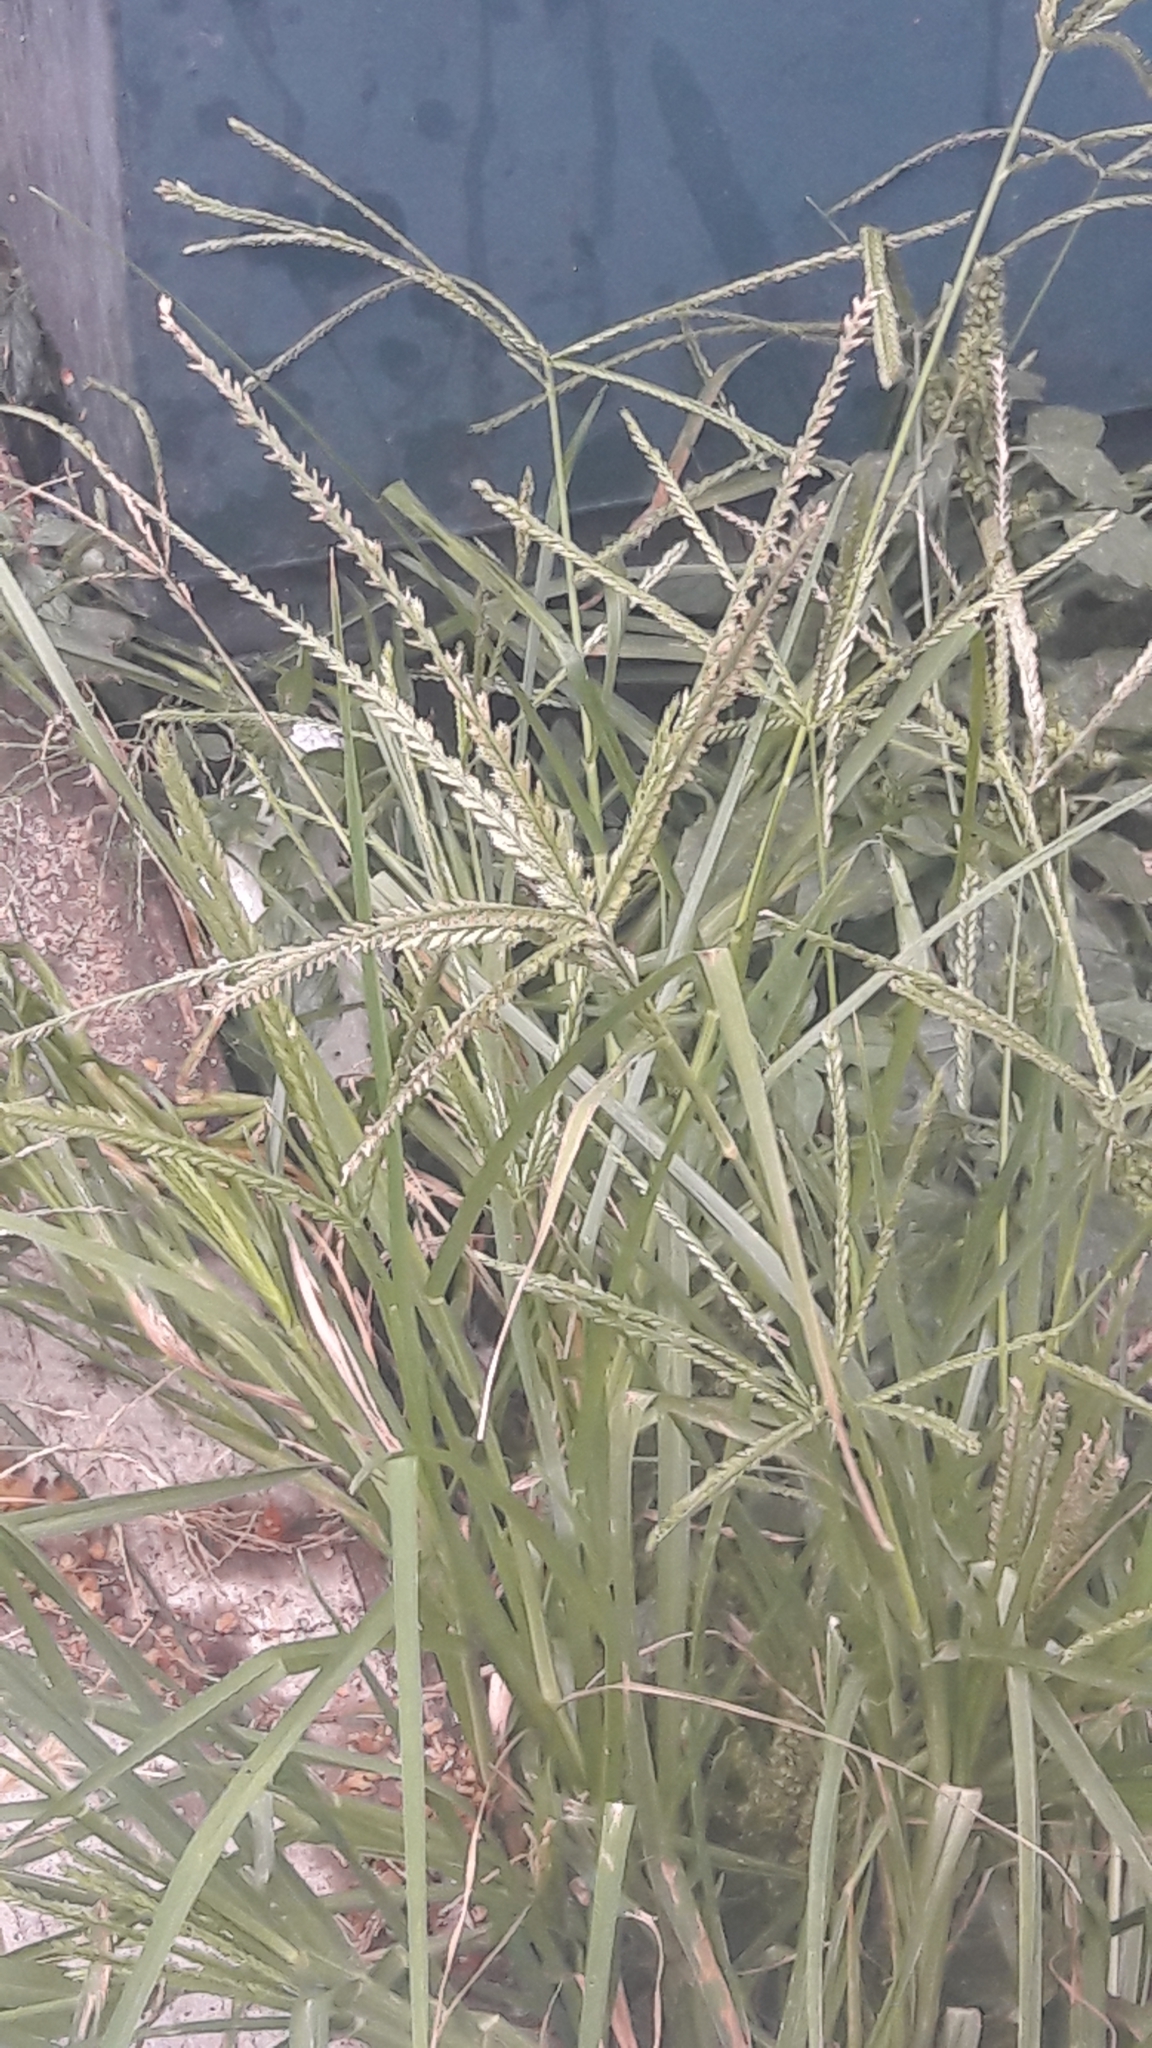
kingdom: Plantae
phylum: Tracheophyta
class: Liliopsida
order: Poales
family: Poaceae
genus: Eleusine
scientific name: Eleusine indica
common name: Yard-grass
